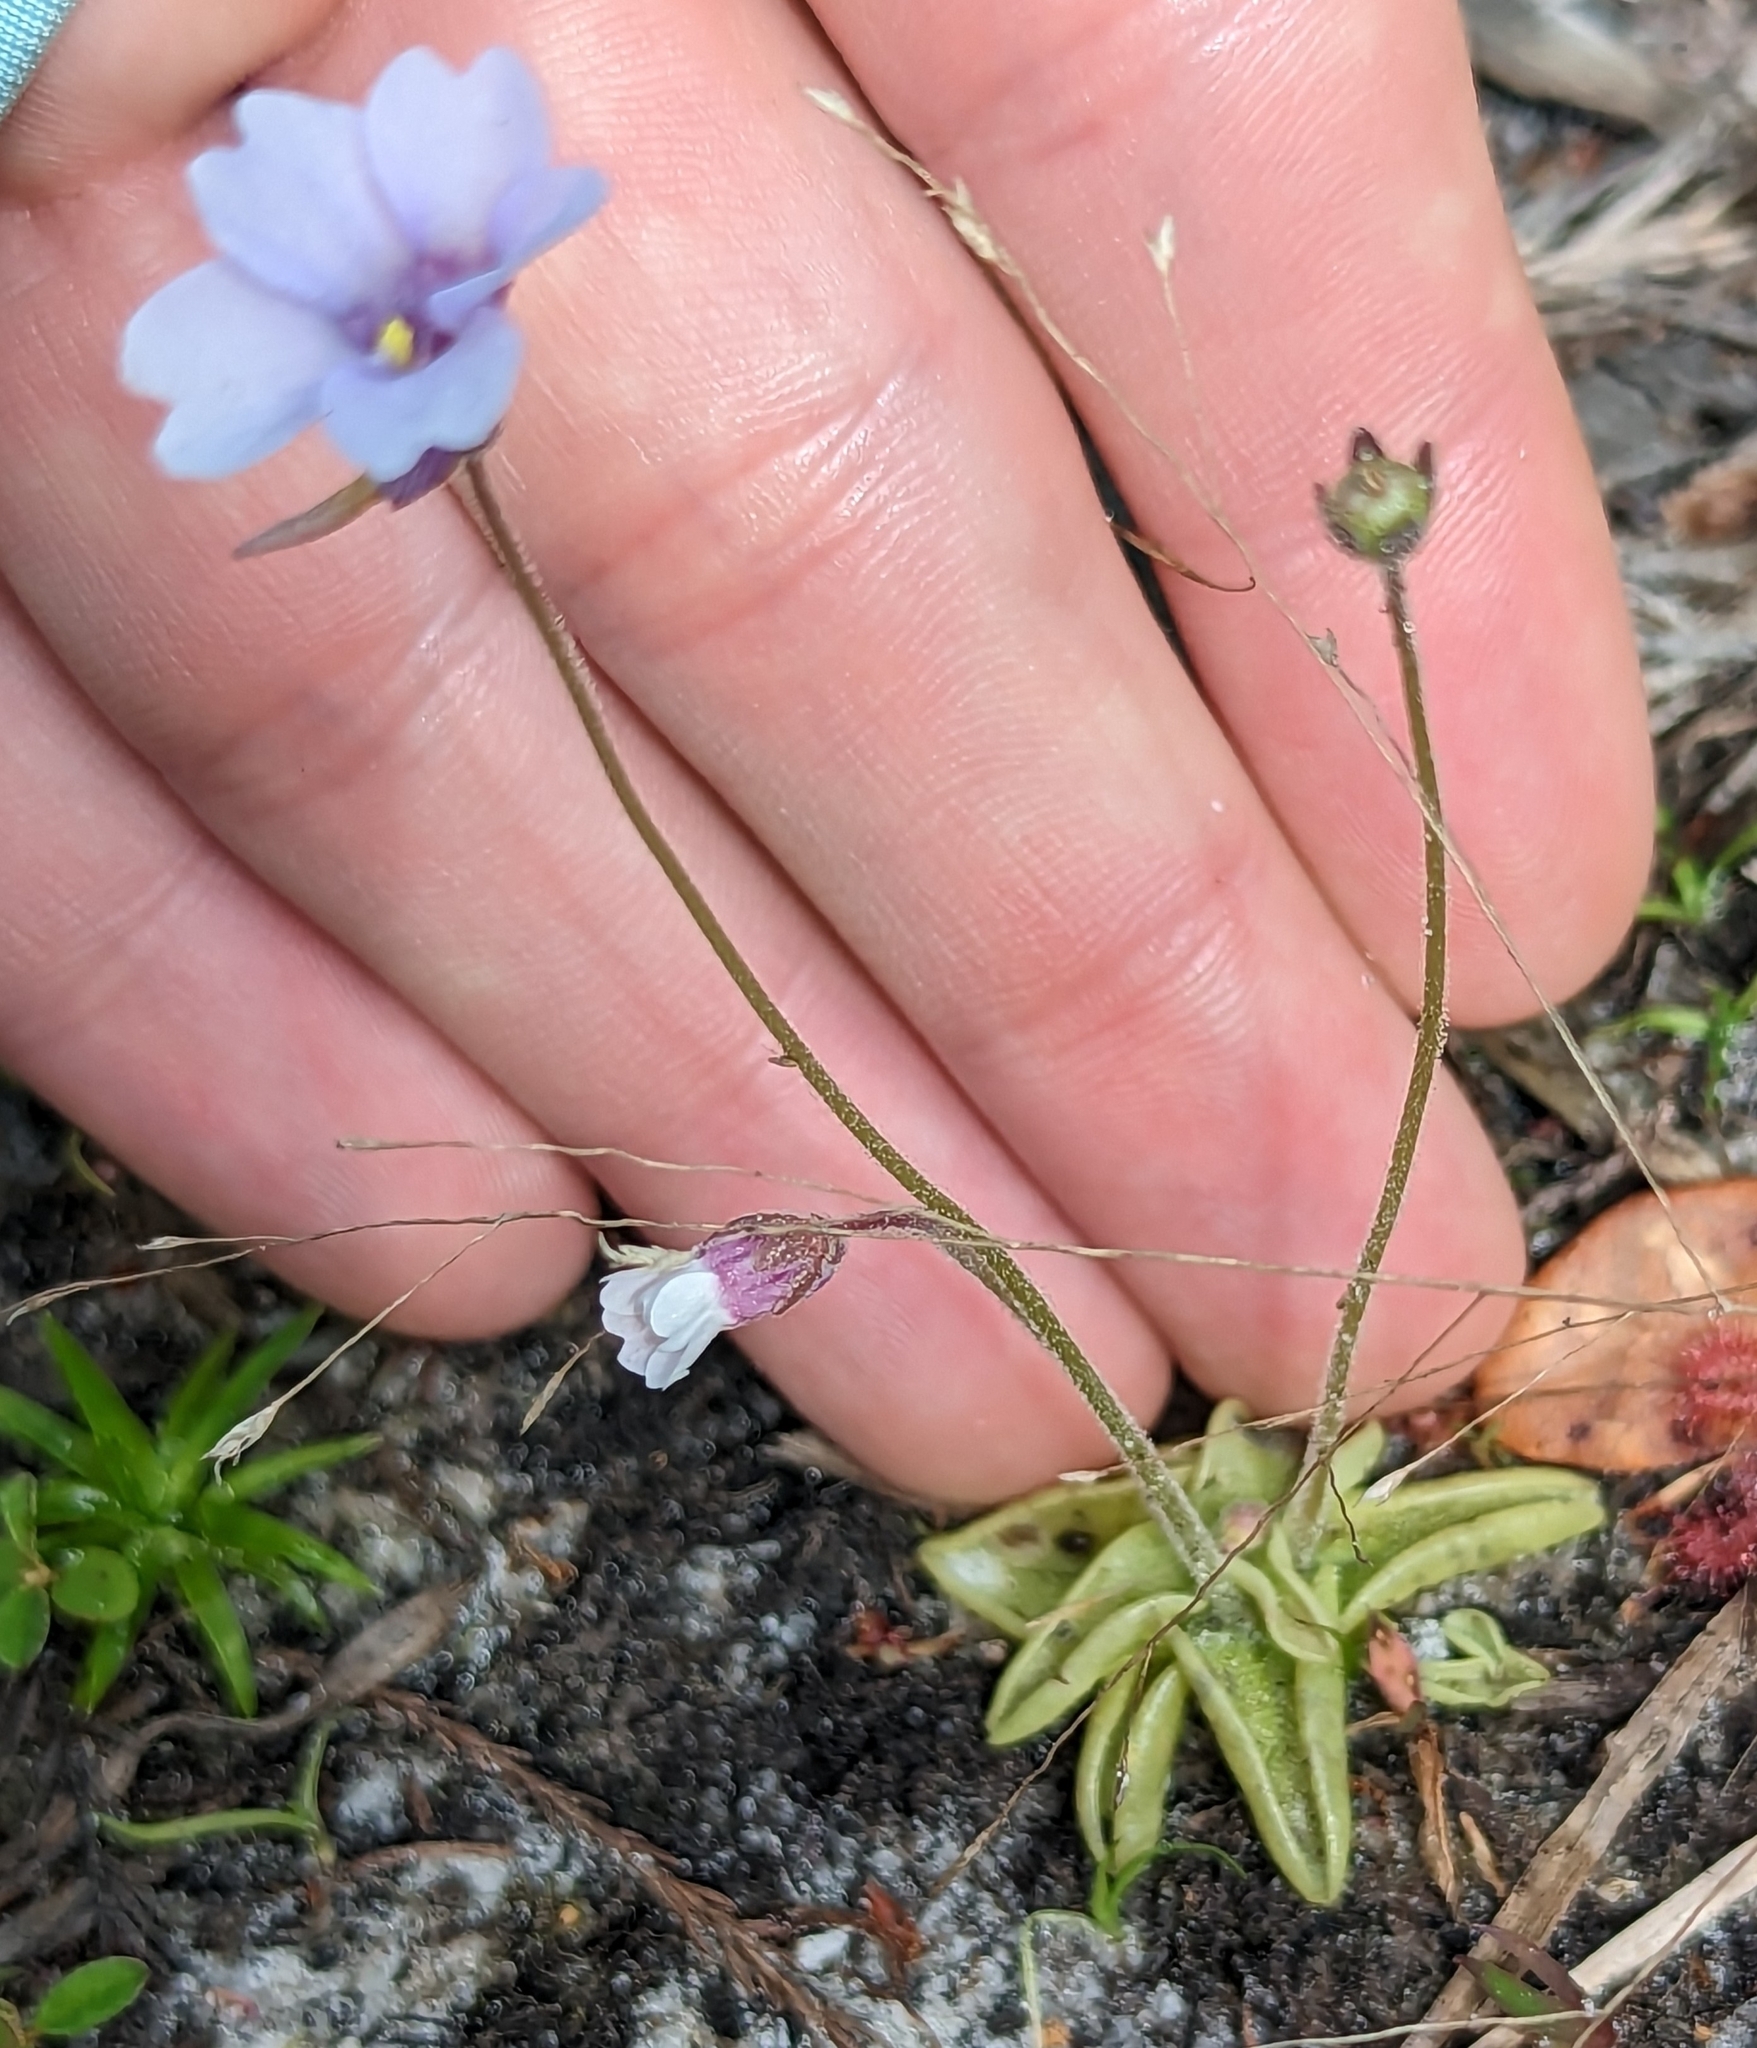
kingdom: Plantae
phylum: Tracheophyta
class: Magnoliopsida
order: Lamiales
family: Lentibulariaceae
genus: Pinguicula
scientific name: Pinguicula pumila
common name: Small butterwort
